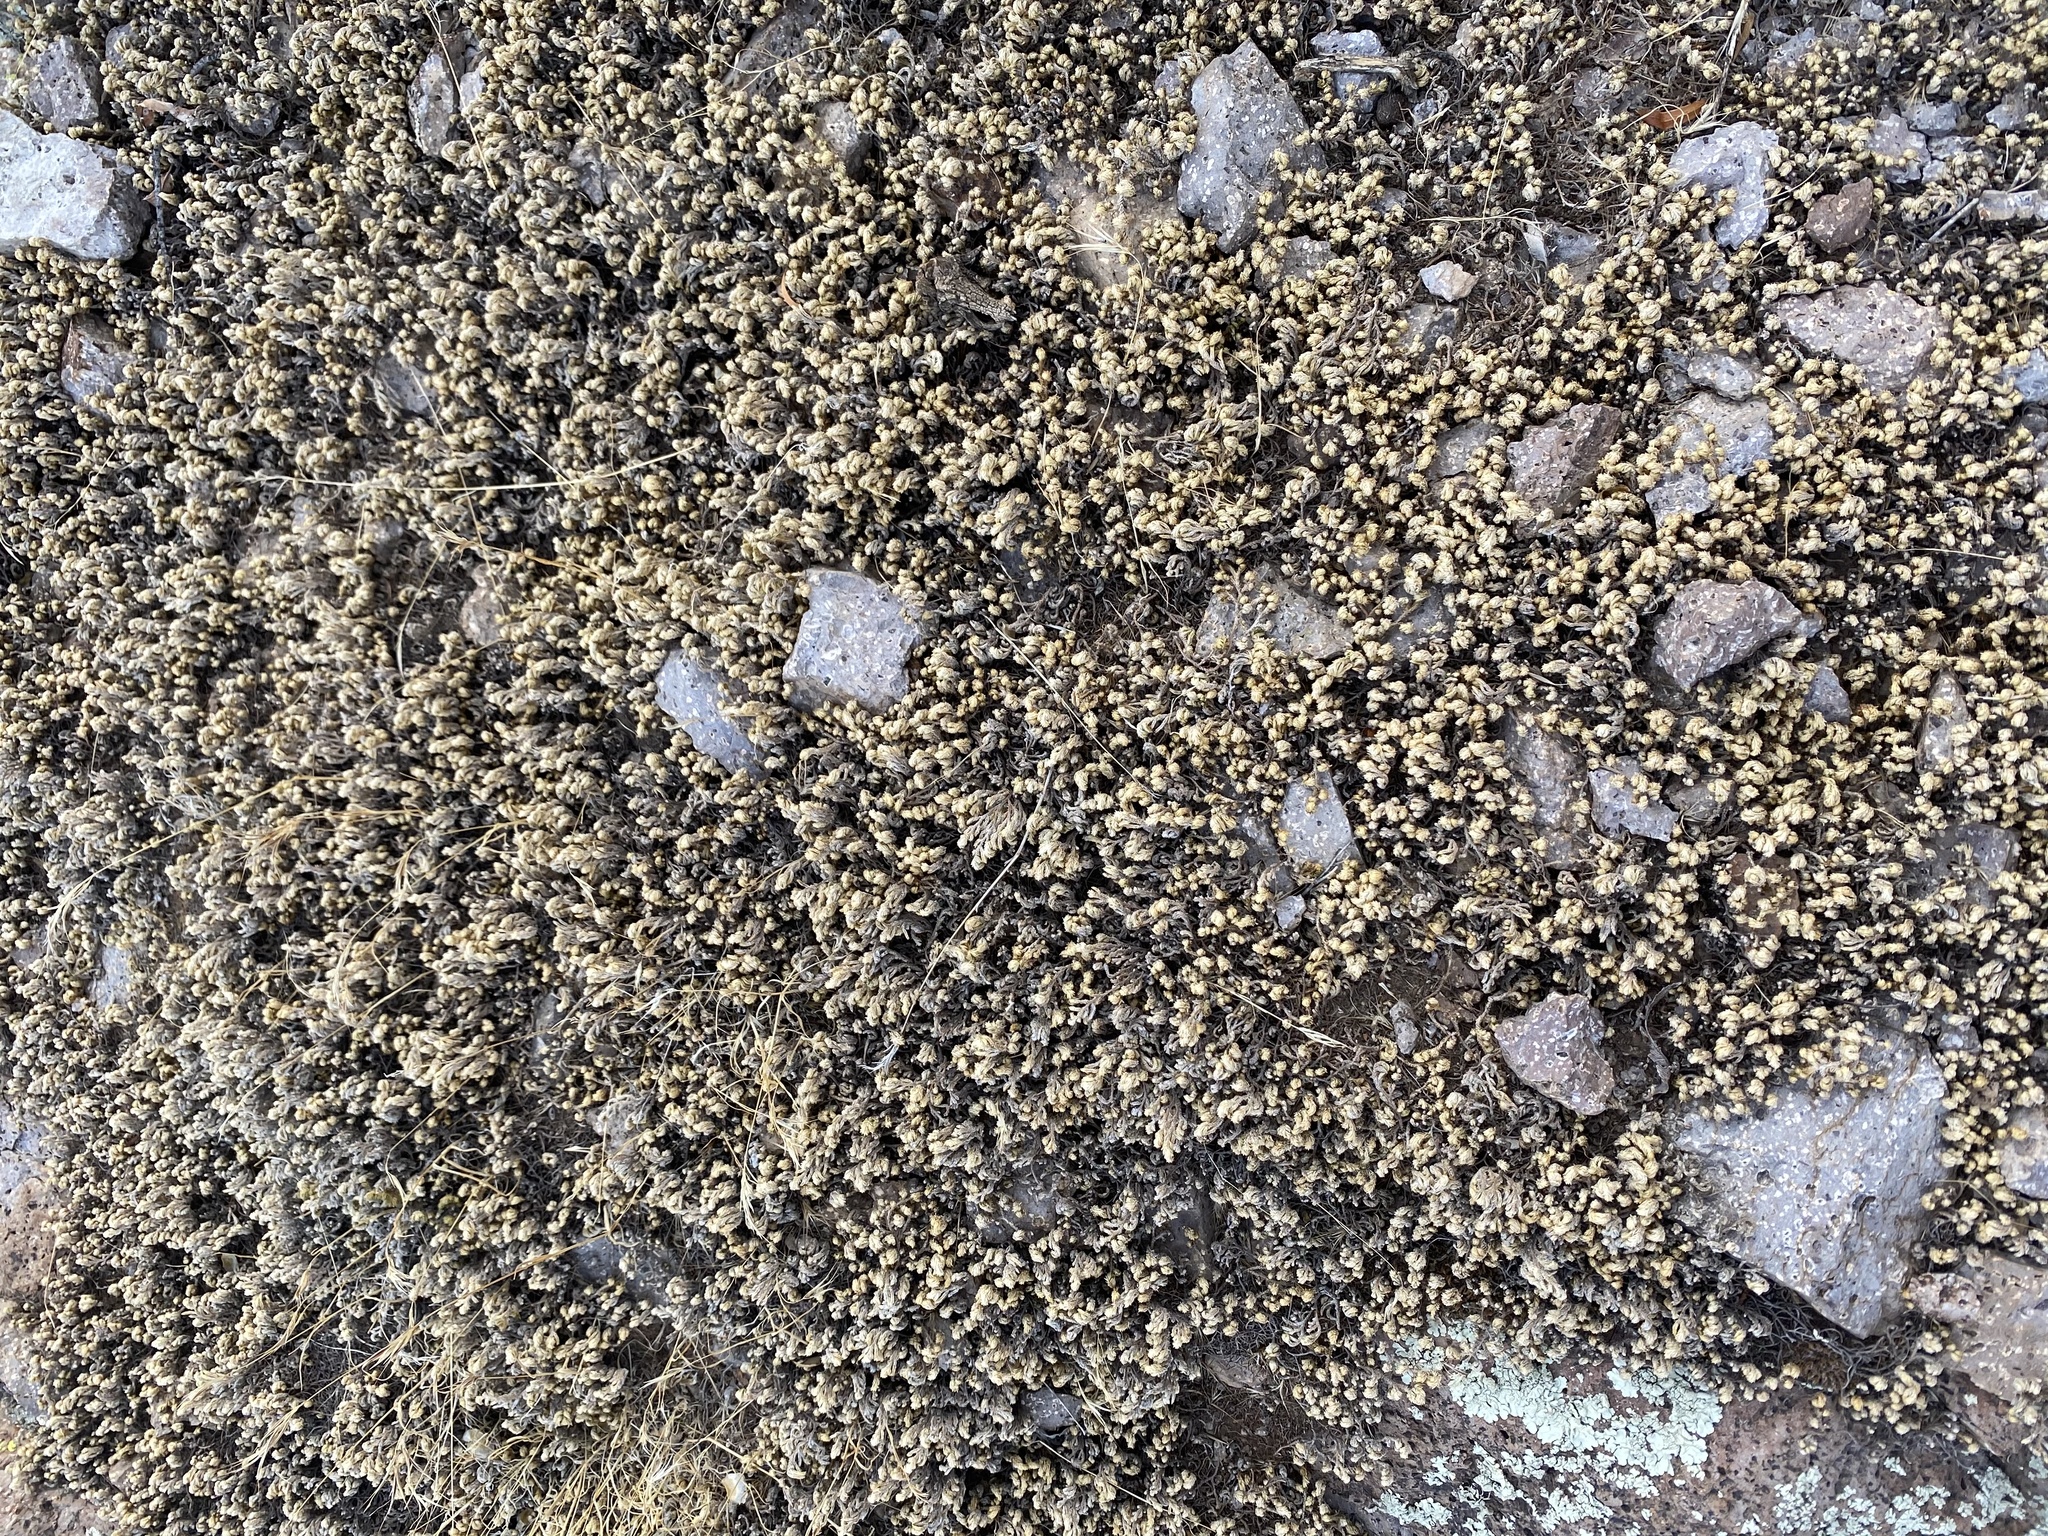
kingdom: Plantae
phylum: Tracheophyta
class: Lycopodiopsida
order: Selaginellales
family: Selaginellaceae
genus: Selaginella
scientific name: Selaginella arizonica
